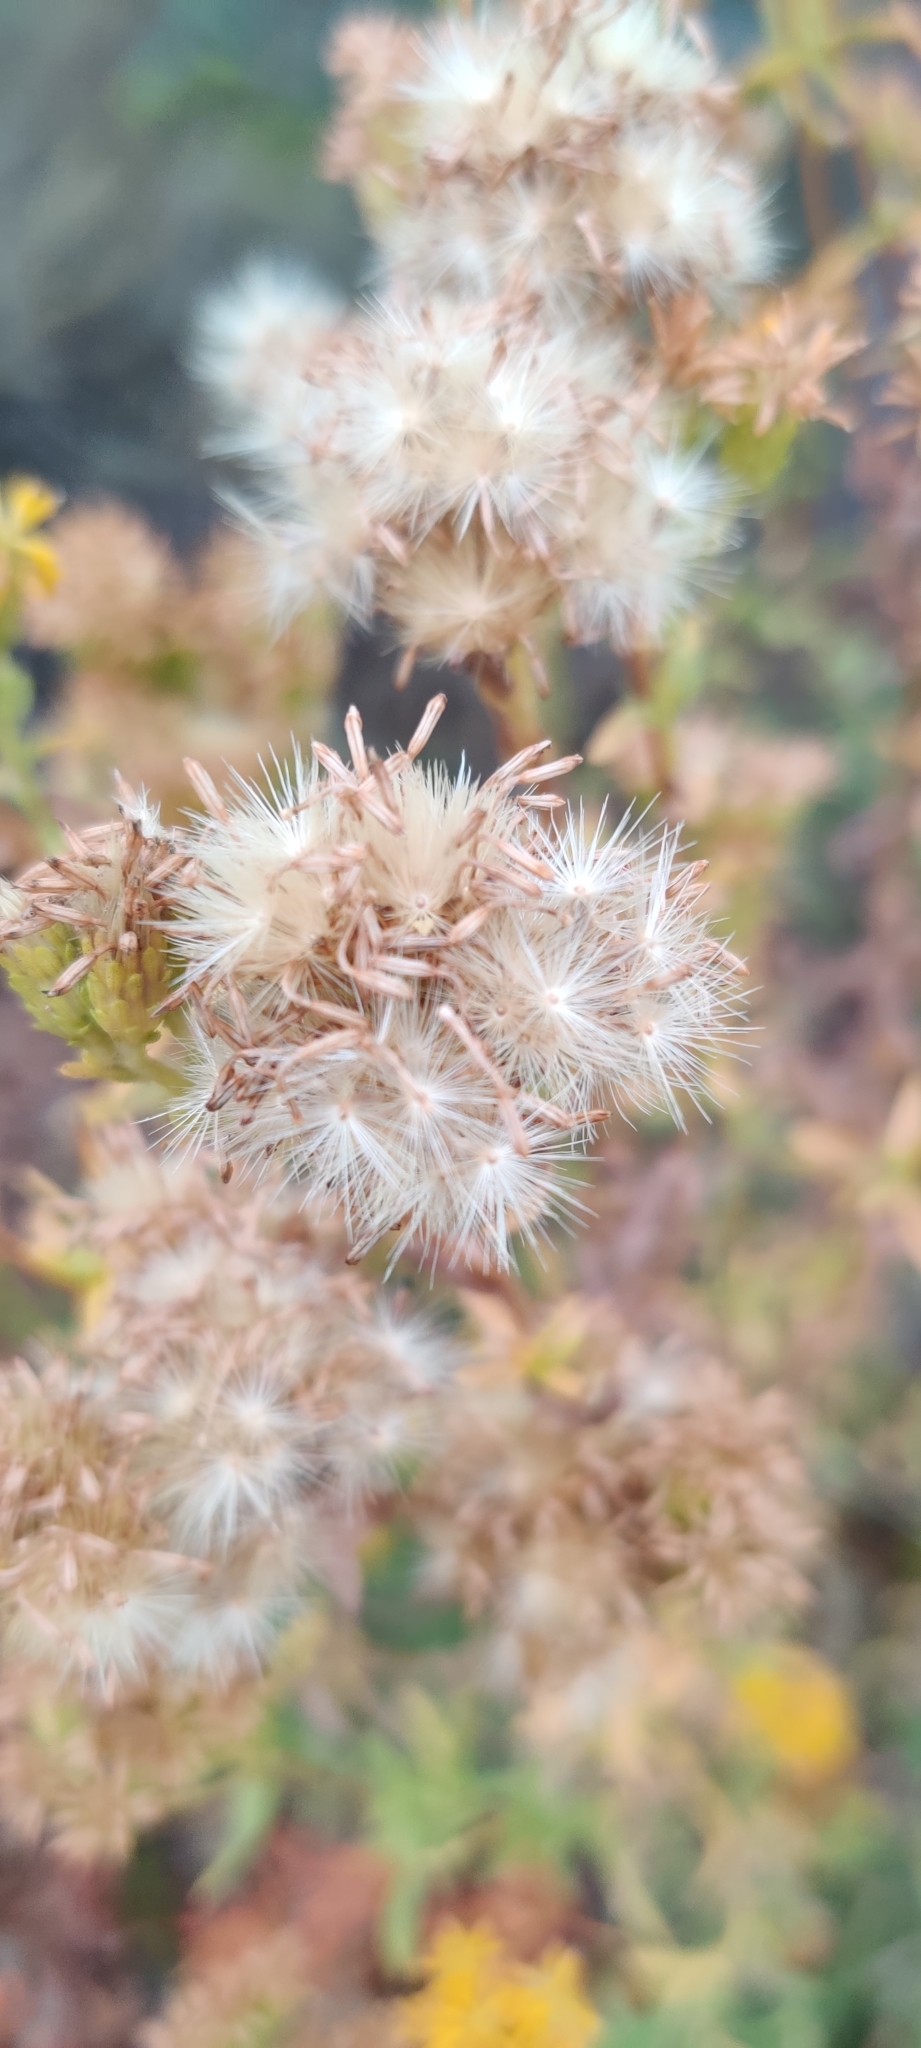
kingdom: Plantae
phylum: Tracheophyta
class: Magnoliopsida
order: Asterales
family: Asteraceae
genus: Isocoma
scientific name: Isocoma menziesii
